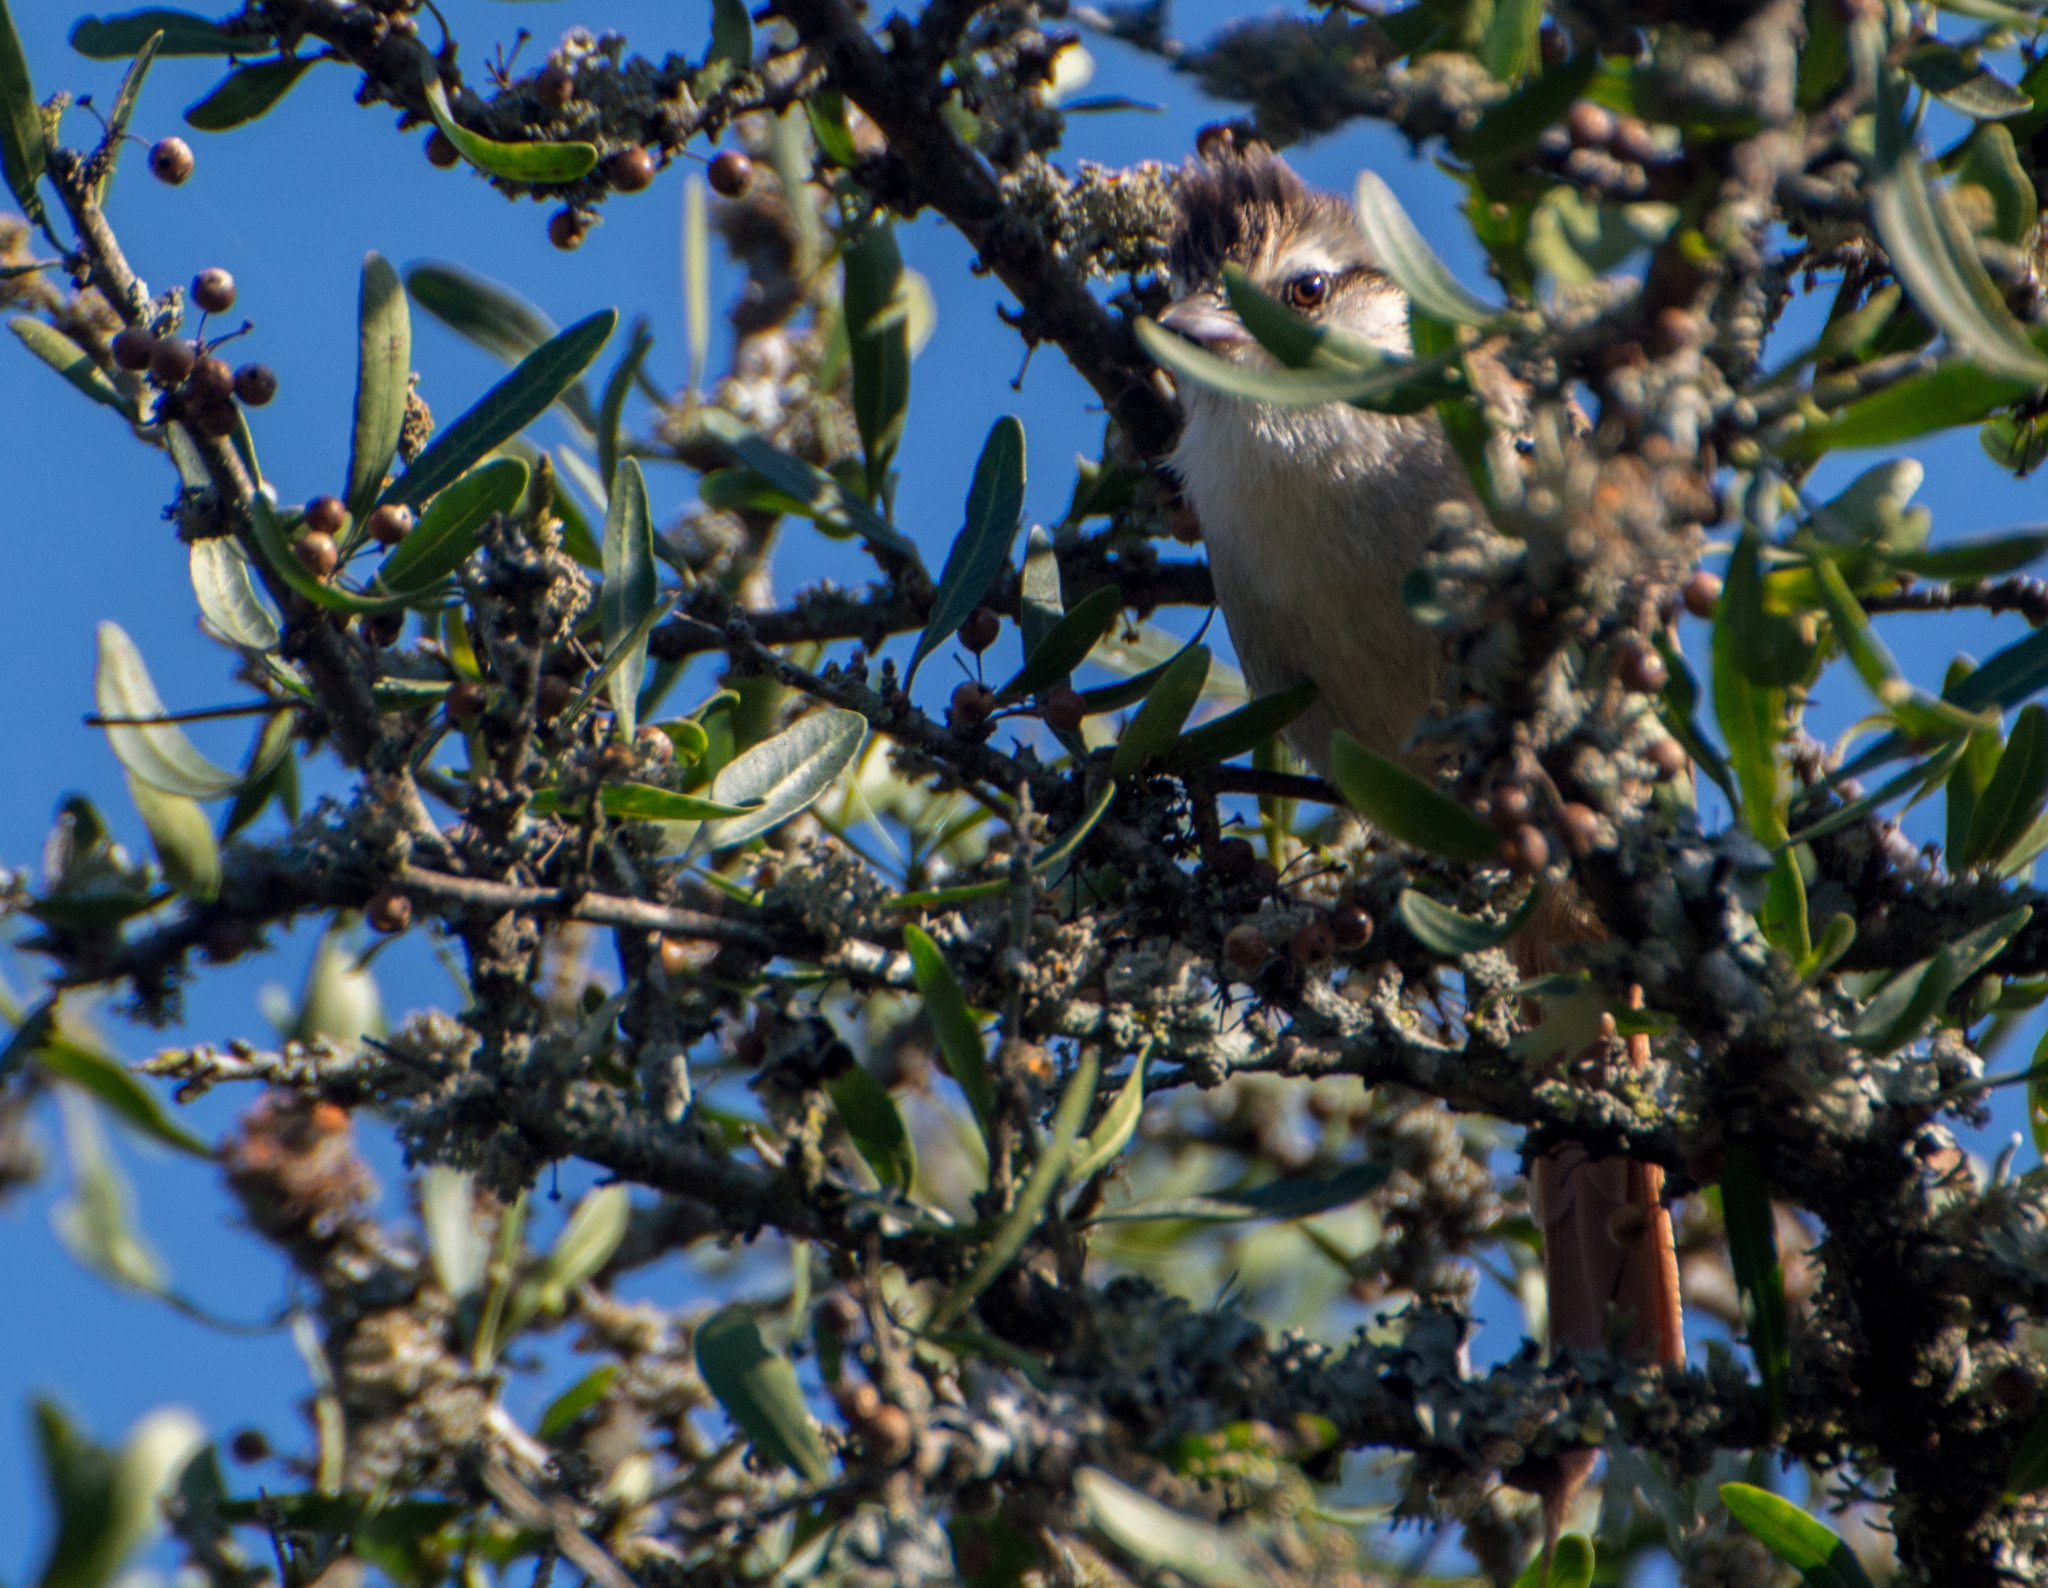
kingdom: Animalia
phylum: Chordata
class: Aves
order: Passeriformes
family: Furnariidae
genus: Cranioleuca
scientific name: Cranioleuca pyrrhophia
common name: Stripe-crowned spinetail
